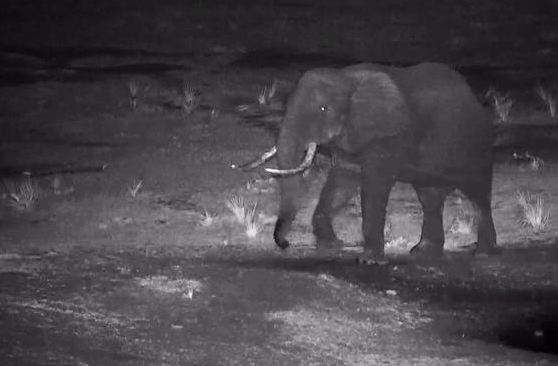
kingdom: Animalia
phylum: Chordata
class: Mammalia
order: Proboscidea
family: Elephantidae
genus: Loxodonta
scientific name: Loxodonta africana
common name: African elephant
